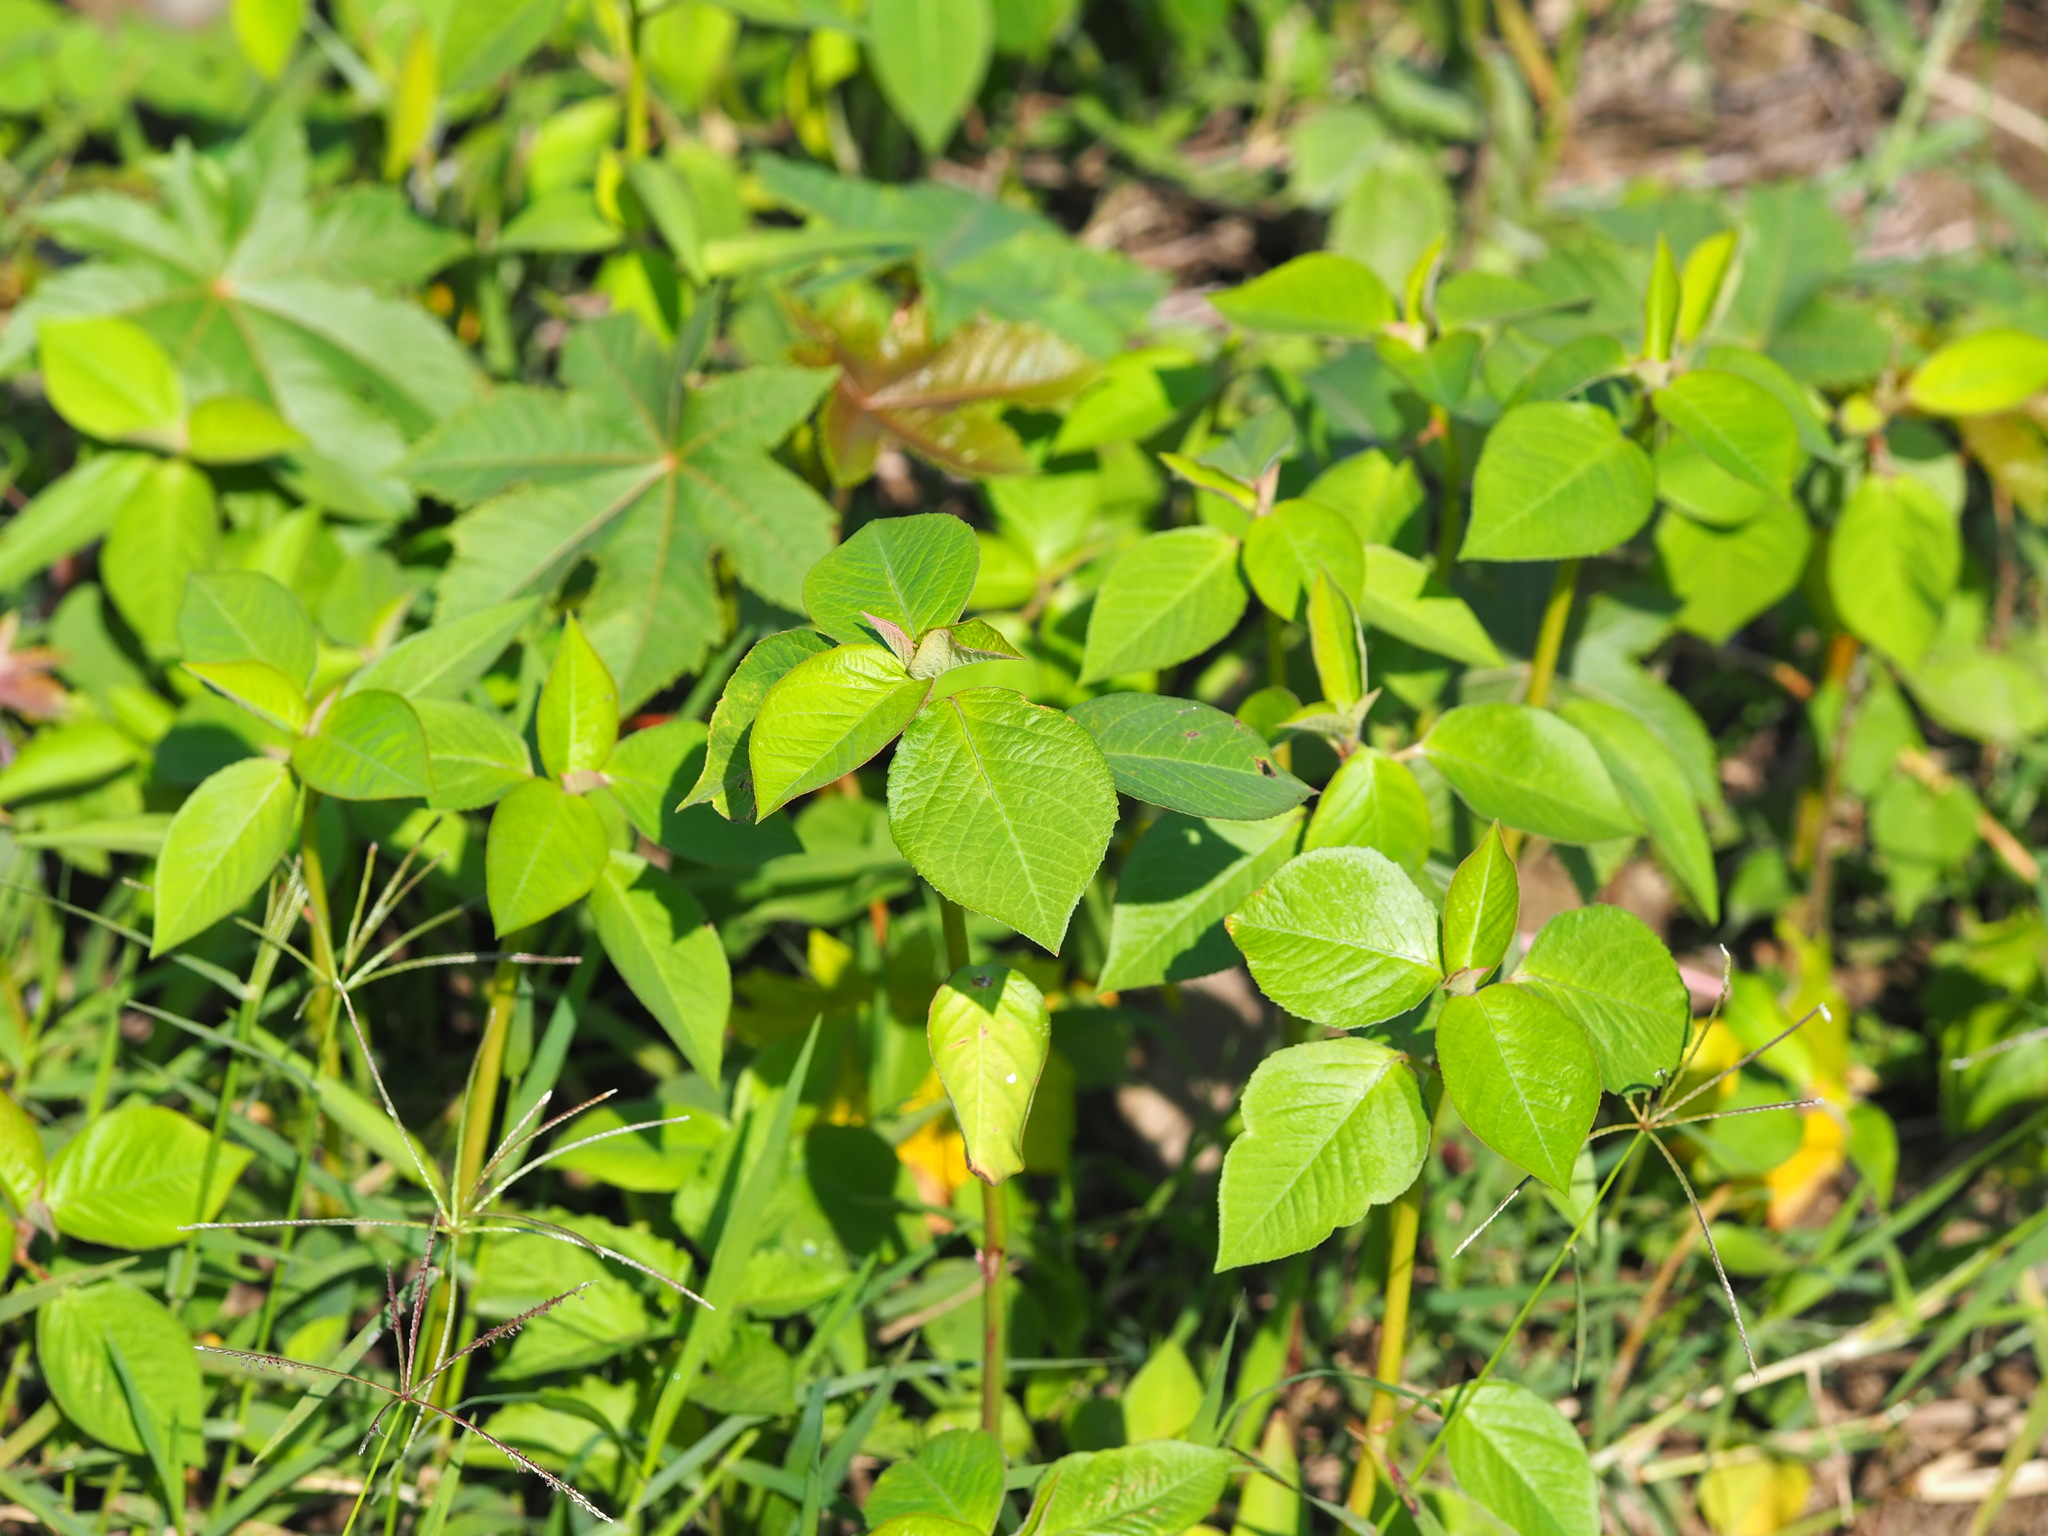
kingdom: Plantae
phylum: Tracheophyta
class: Magnoliopsida
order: Malpighiales
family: Euphorbiaceae
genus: Euphorbia
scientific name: Euphorbia heterophylla
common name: Mexican fireplant
